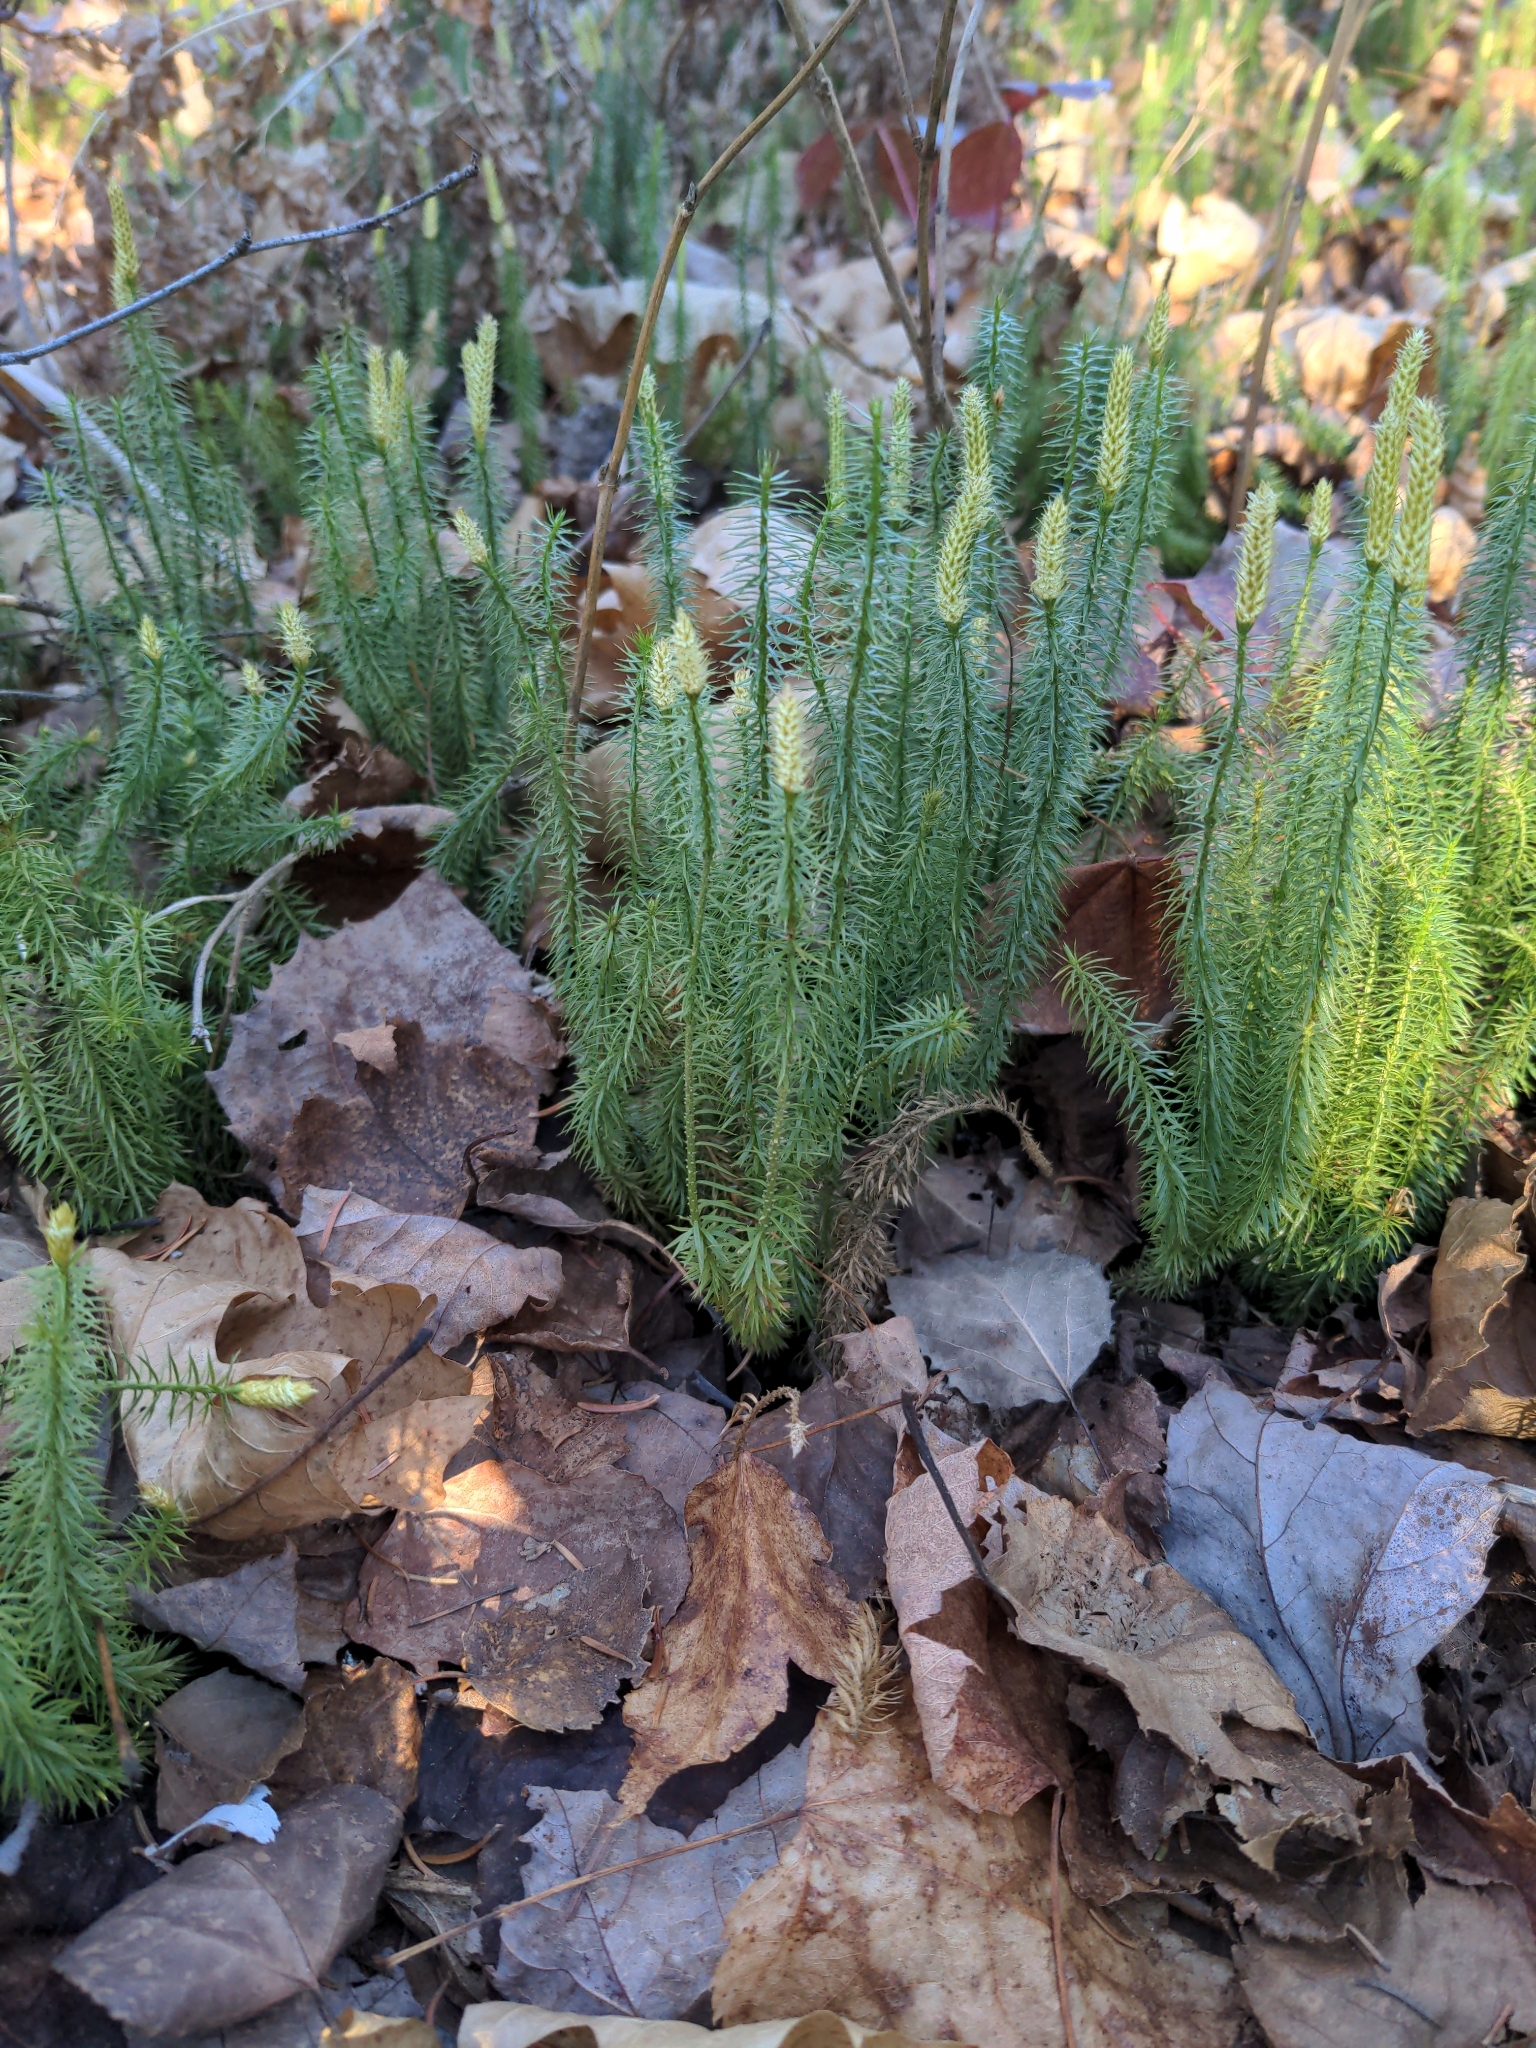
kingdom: Plantae
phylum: Tracheophyta
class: Lycopodiopsida
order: Lycopodiales
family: Lycopodiaceae
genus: Spinulum
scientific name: Spinulum annotinum
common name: Interrupted club-moss
